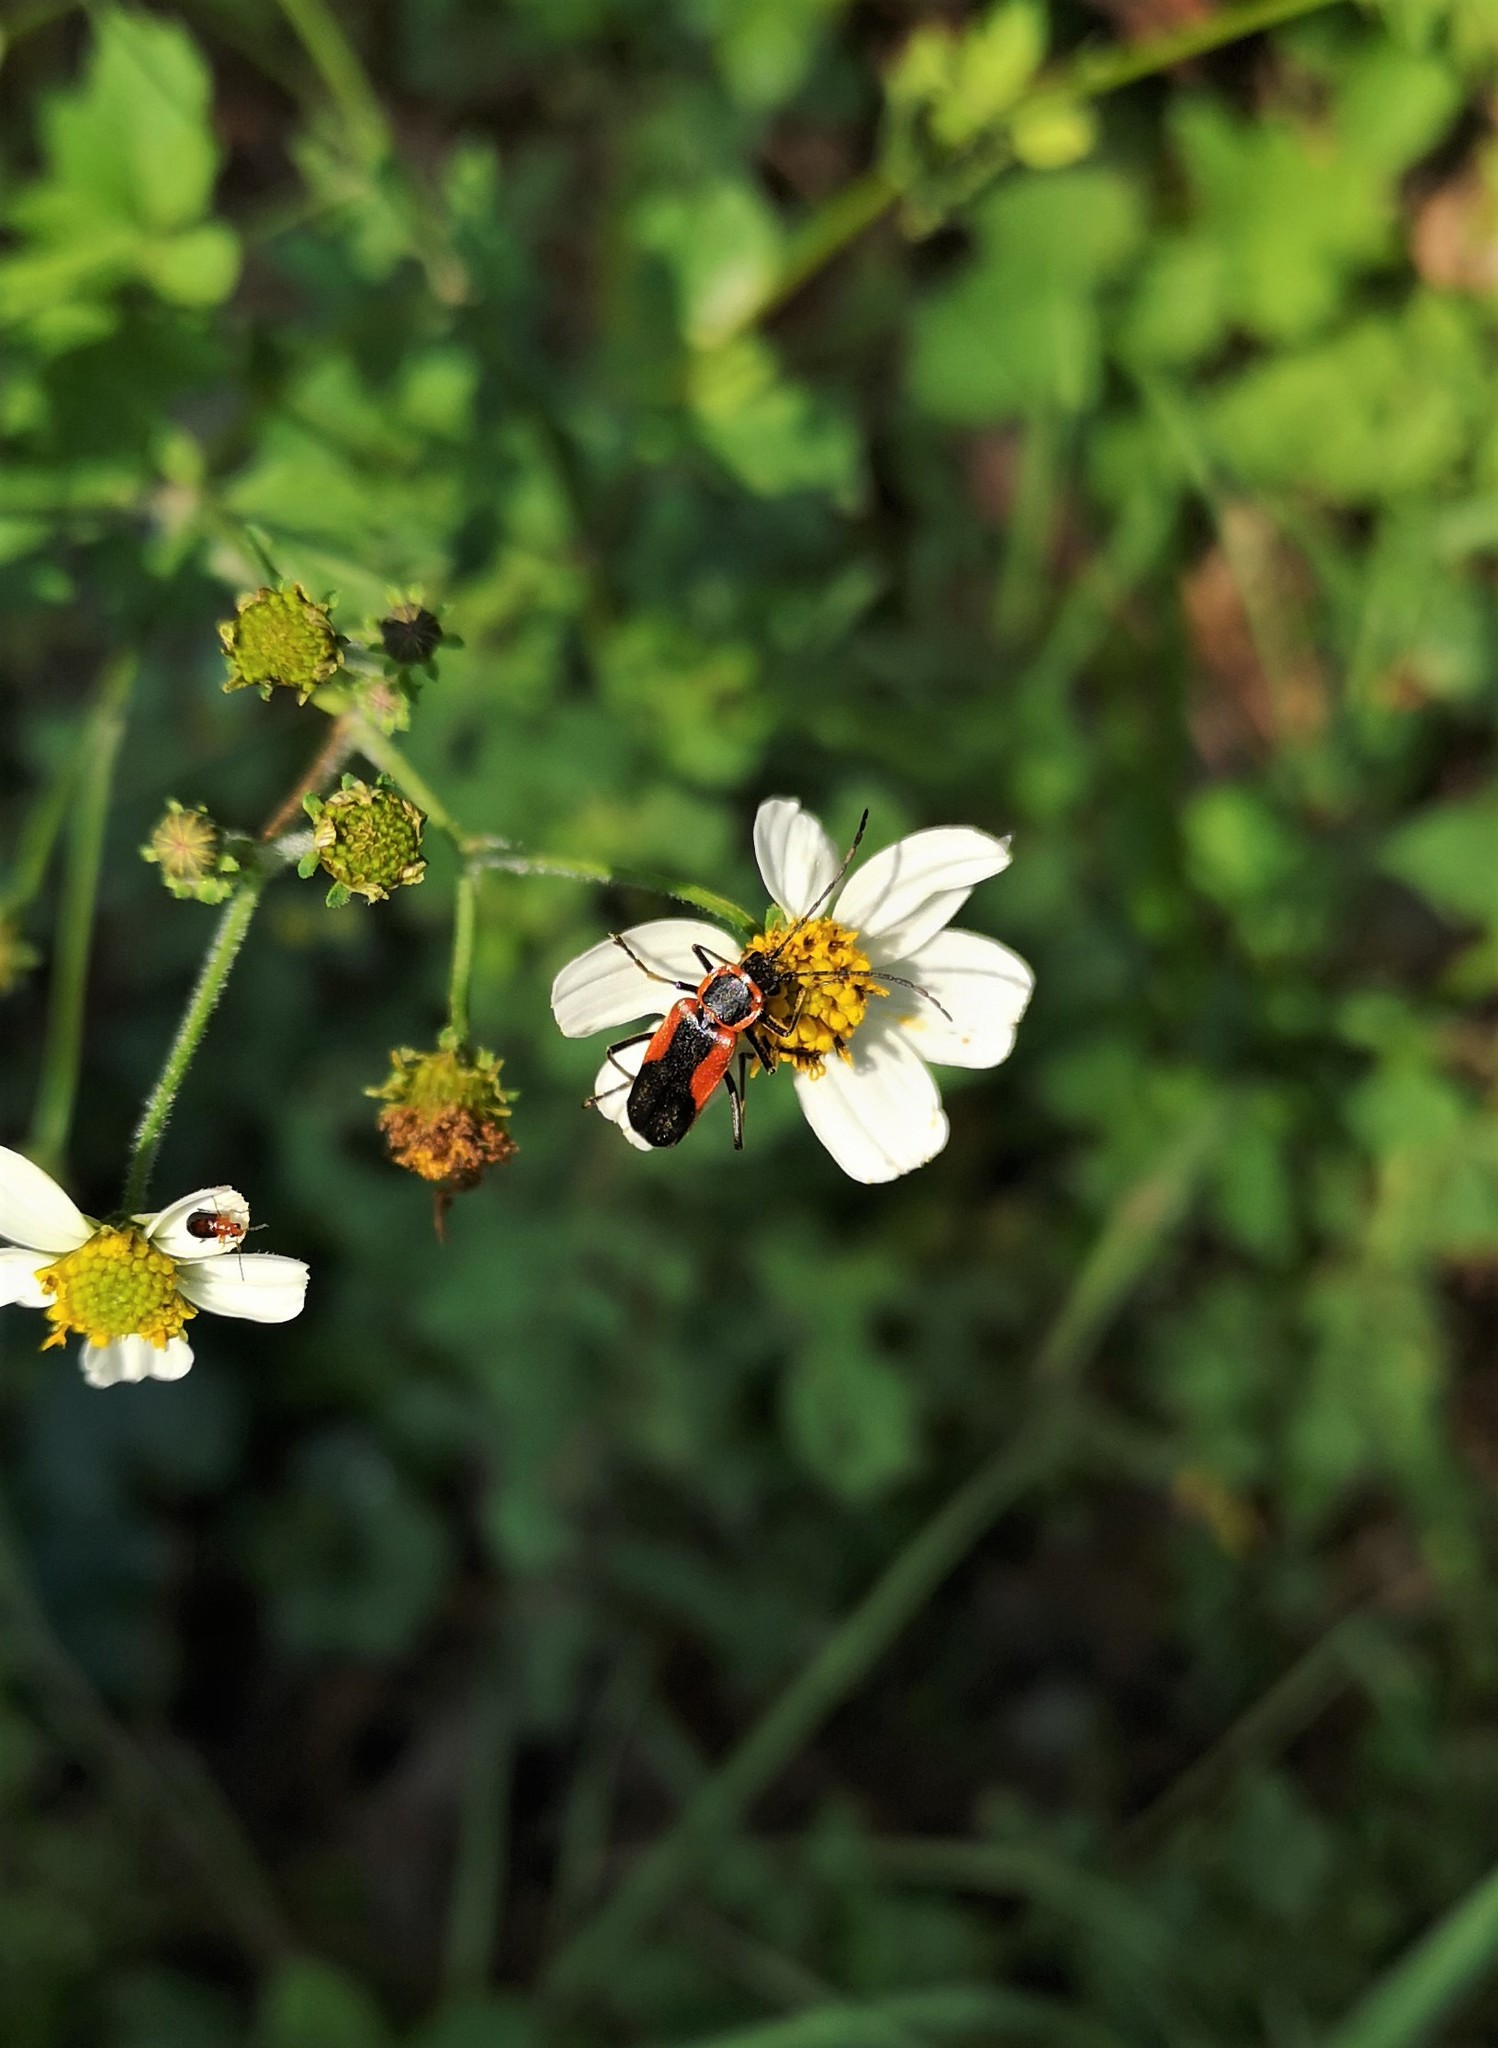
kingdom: Animalia
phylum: Arthropoda
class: Insecta
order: Coleoptera
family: Cantharidae
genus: Chauliognathus
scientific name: Chauliognathus limbicollis
